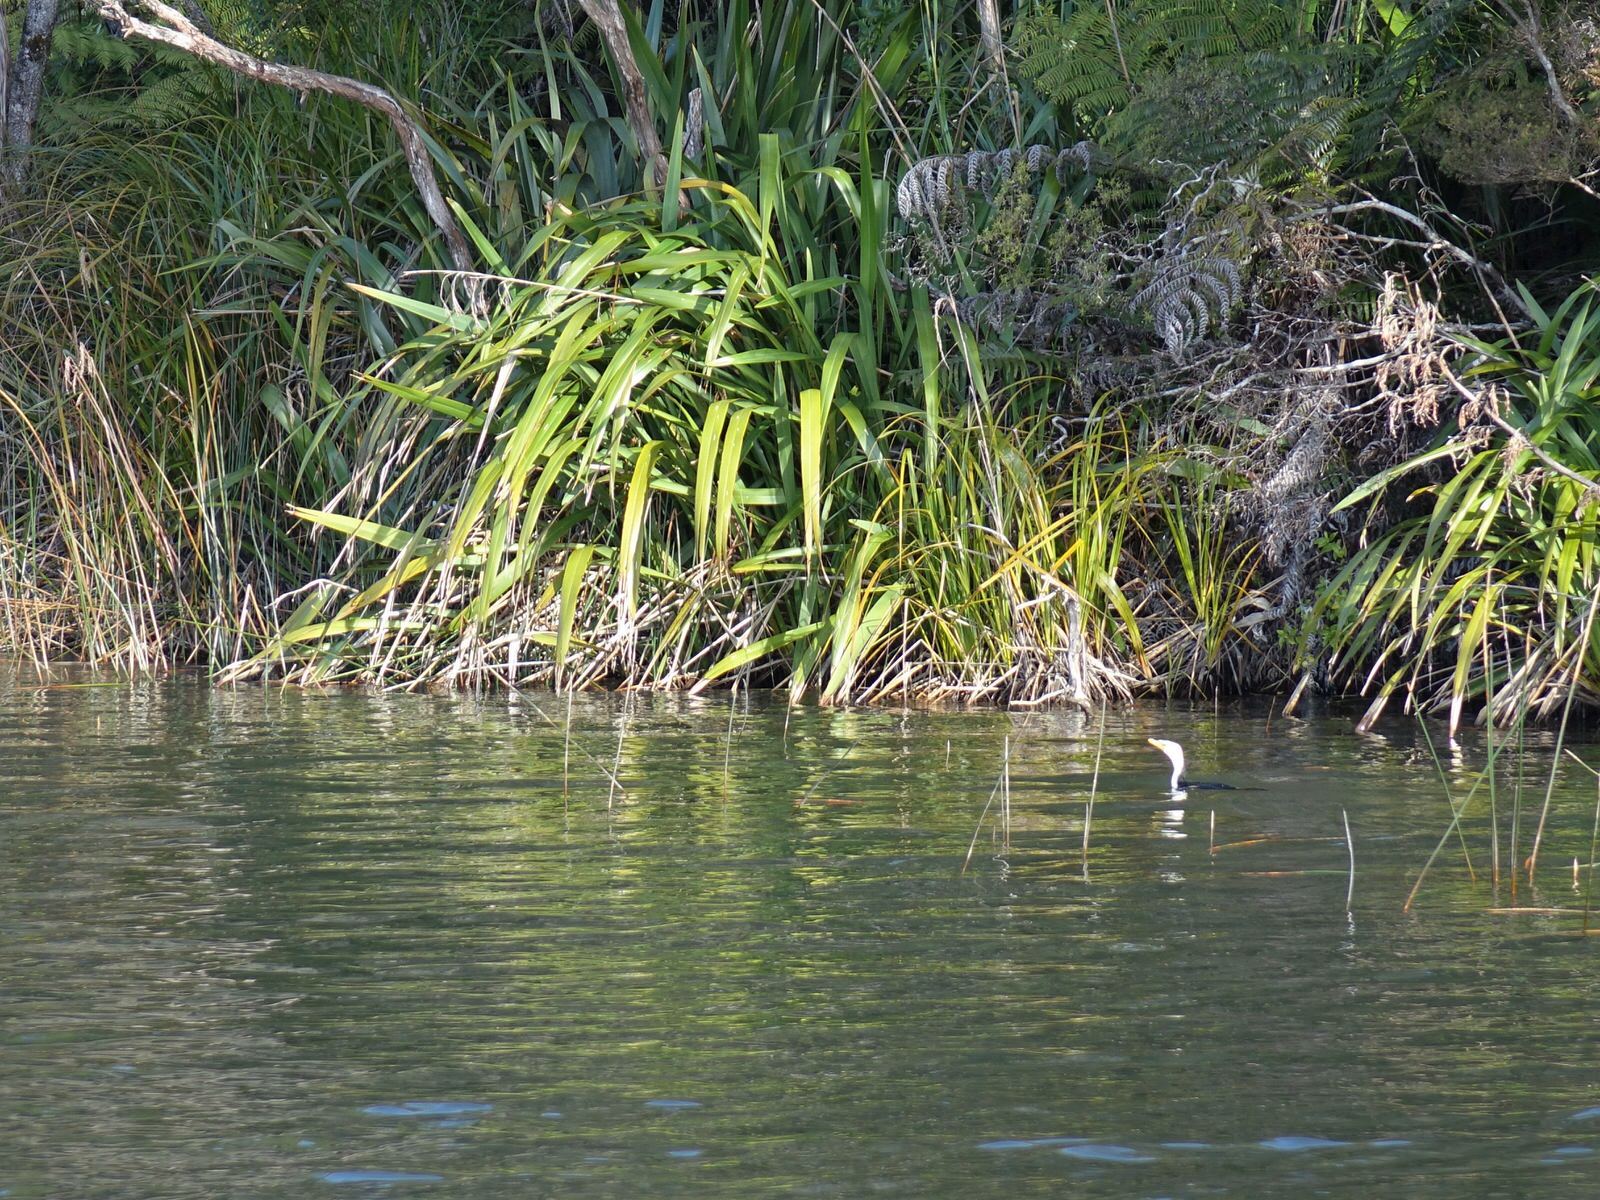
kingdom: Animalia
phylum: Chordata
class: Aves
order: Suliformes
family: Phalacrocoracidae
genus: Microcarbo
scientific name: Microcarbo melanoleucos
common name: Little pied cormorant
